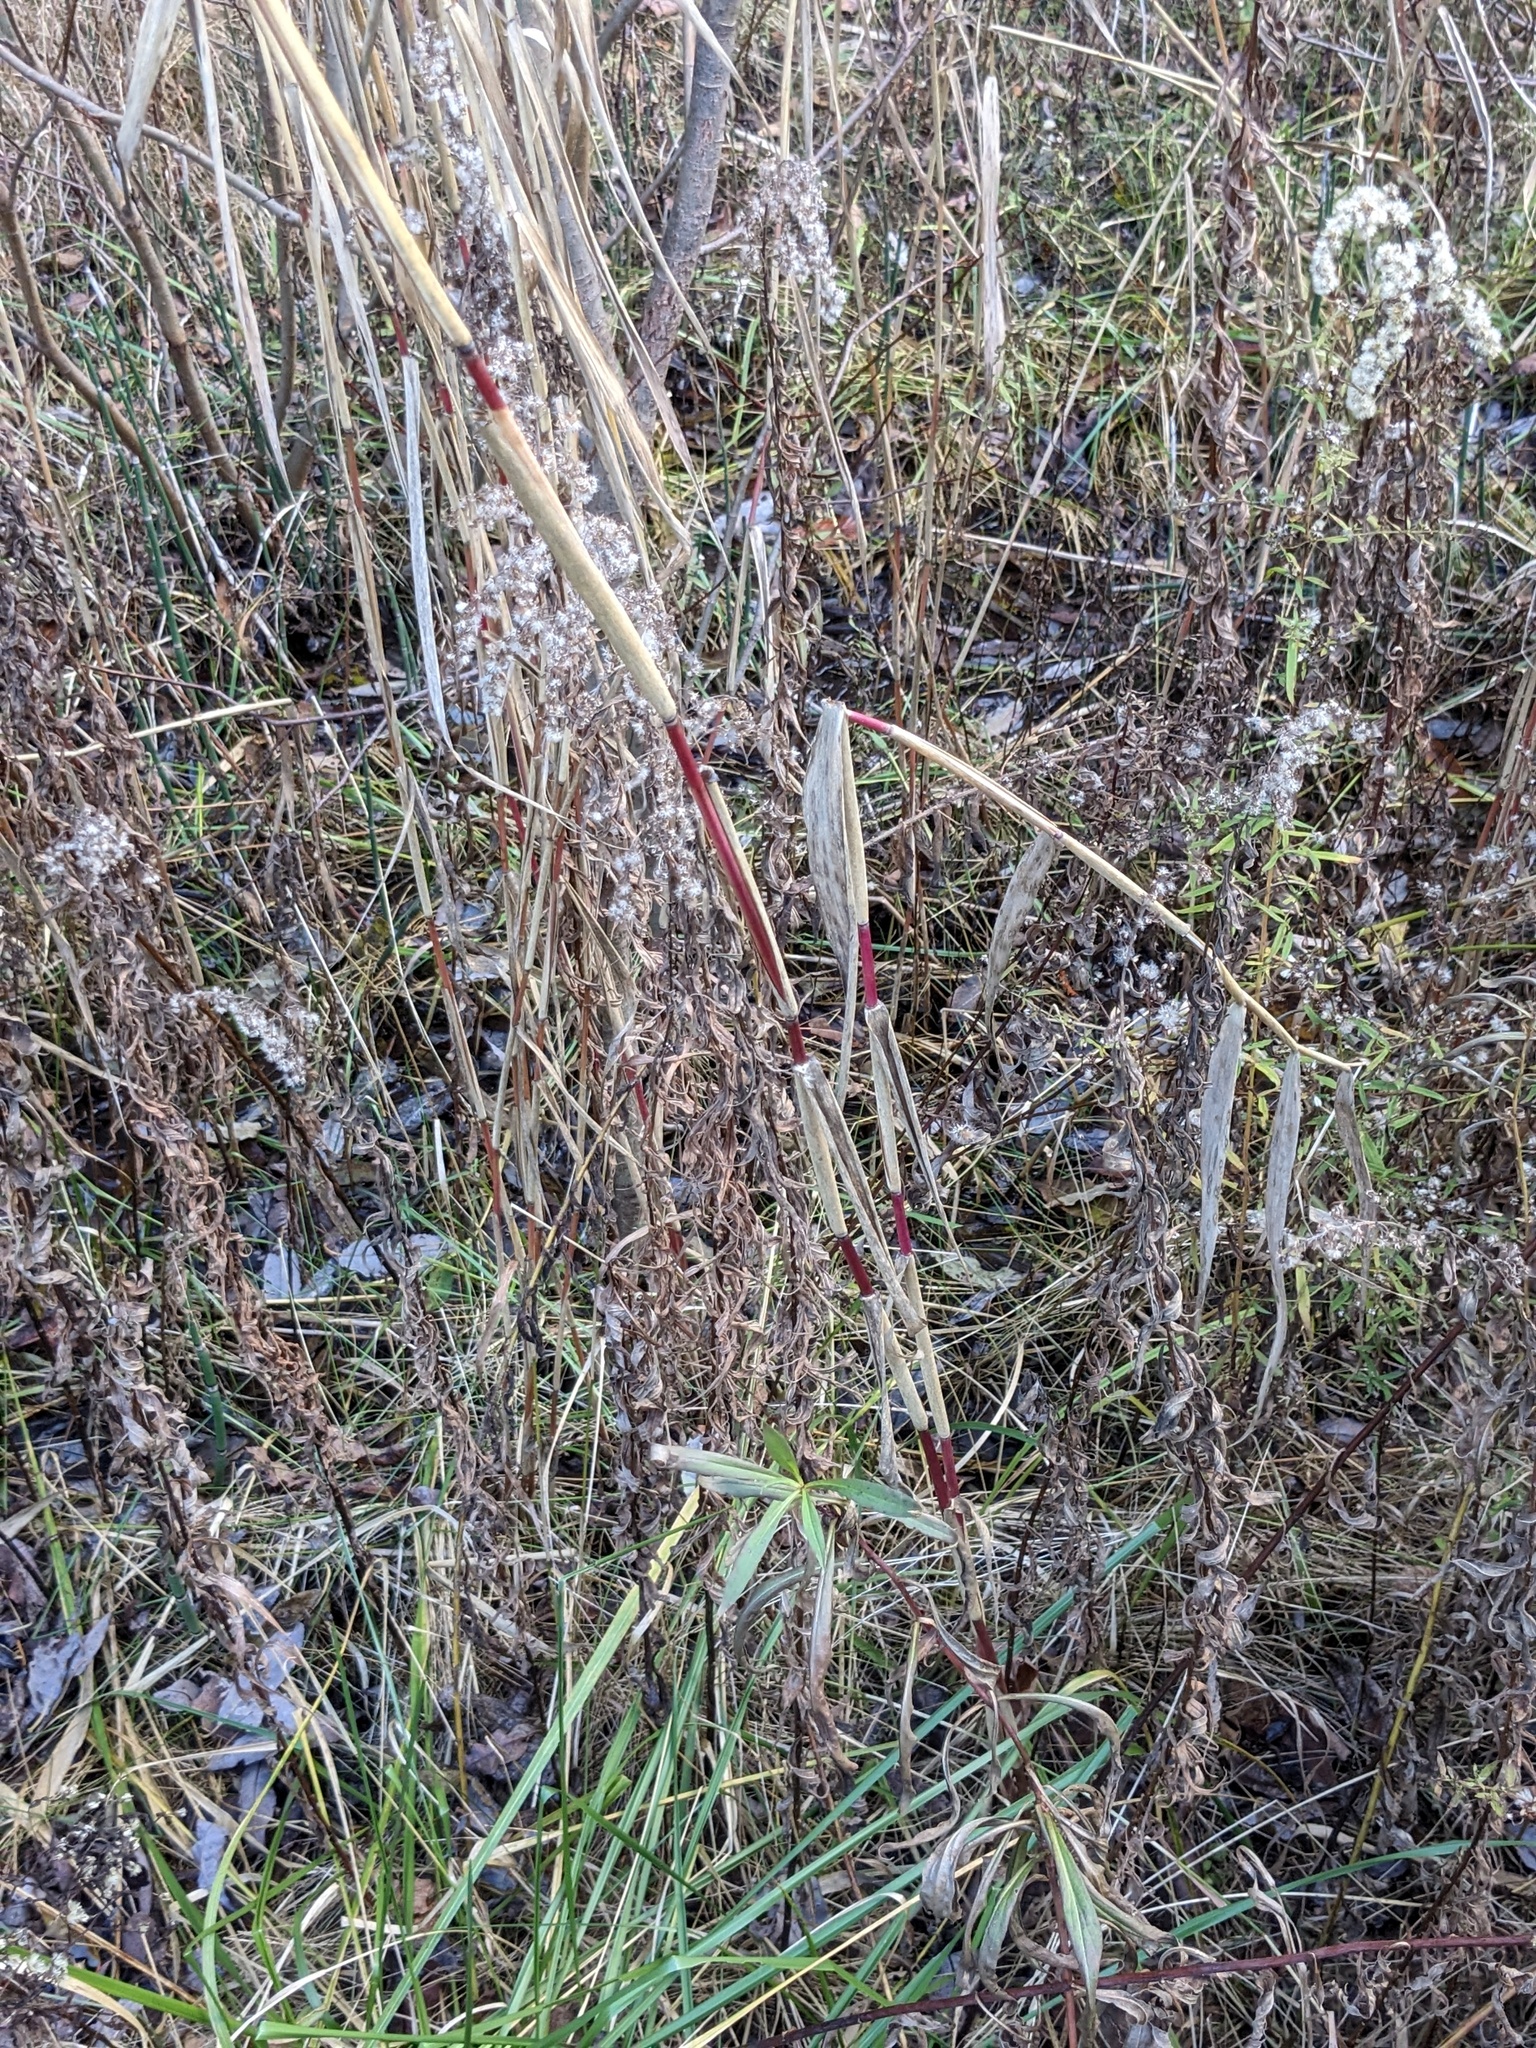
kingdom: Plantae
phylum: Tracheophyta
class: Liliopsida
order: Poales
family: Poaceae
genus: Phragmites
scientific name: Phragmites australis
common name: Common reed
